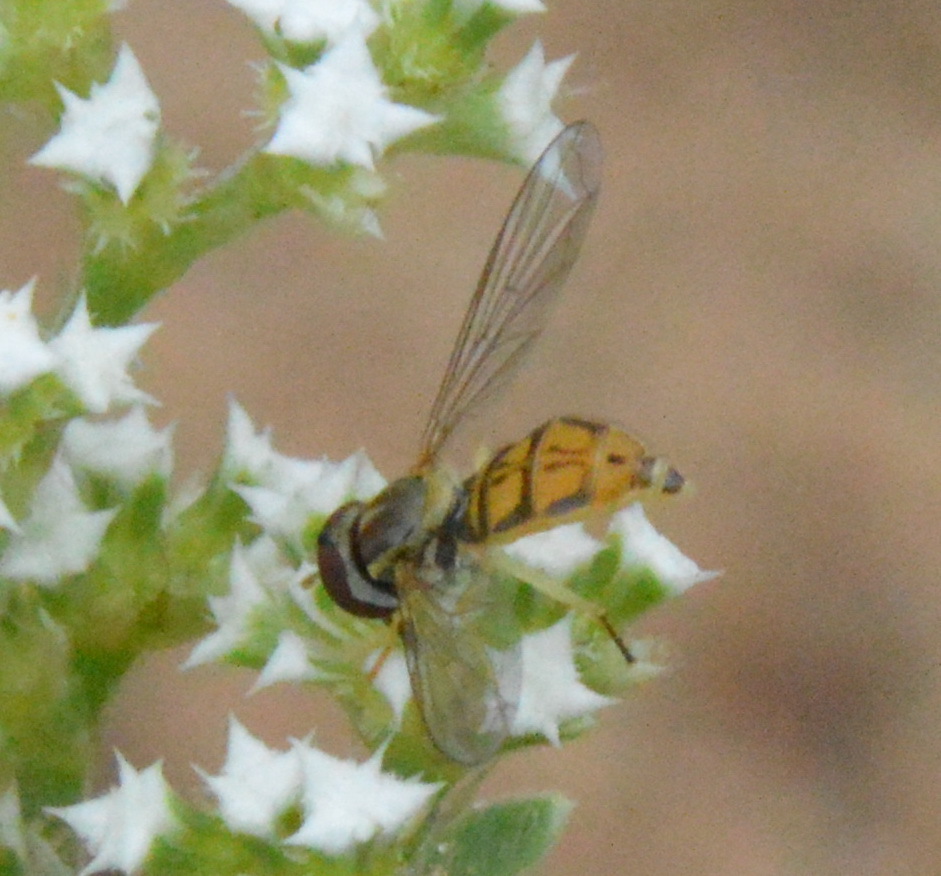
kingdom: Animalia
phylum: Arthropoda
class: Insecta
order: Diptera
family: Syrphidae
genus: Toxomerus
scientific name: Toxomerus marginatus
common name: Syrphid fly
